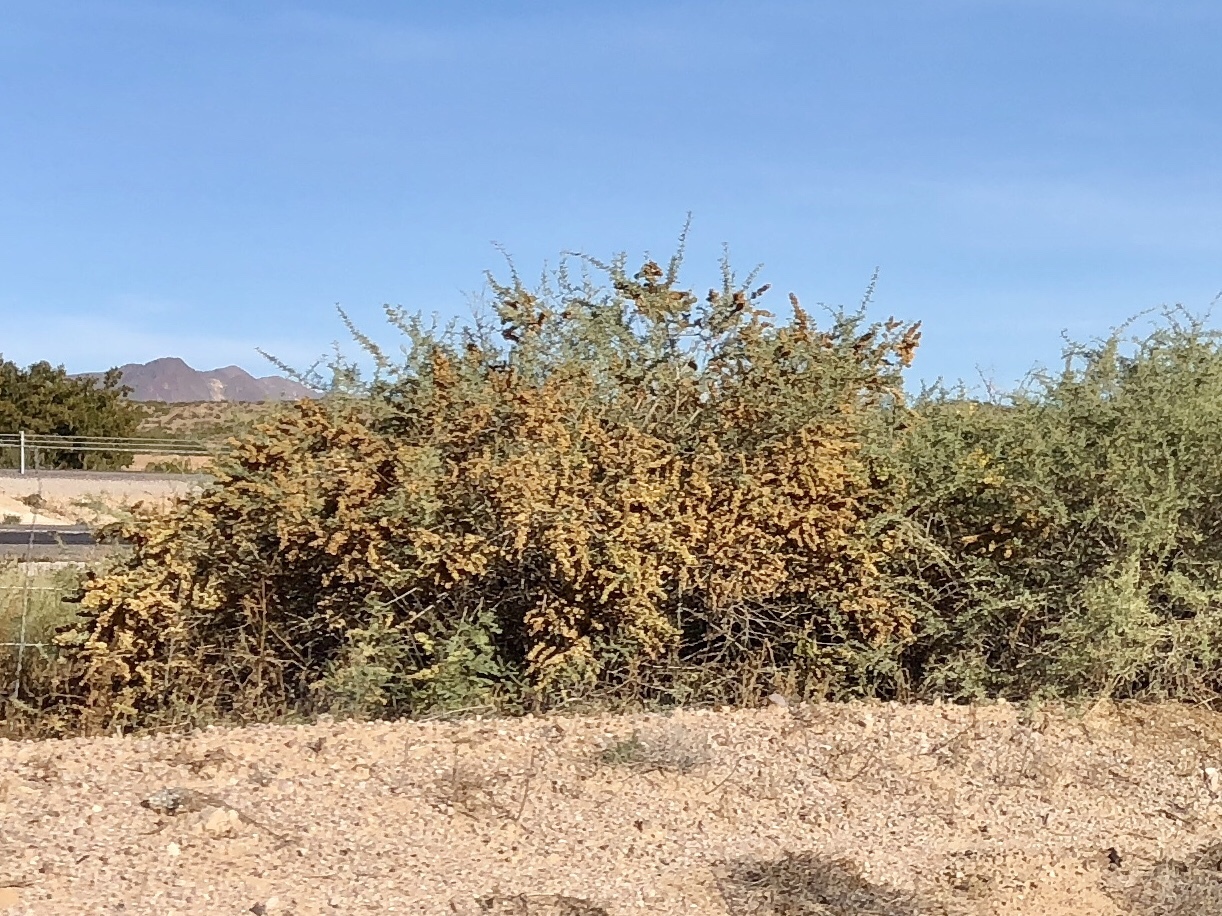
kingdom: Plantae
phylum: Tracheophyta
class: Magnoliopsida
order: Caryophyllales
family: Amaranthaceae
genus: Atriplex
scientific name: Atriplex canescens
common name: Four-wing saltbush
